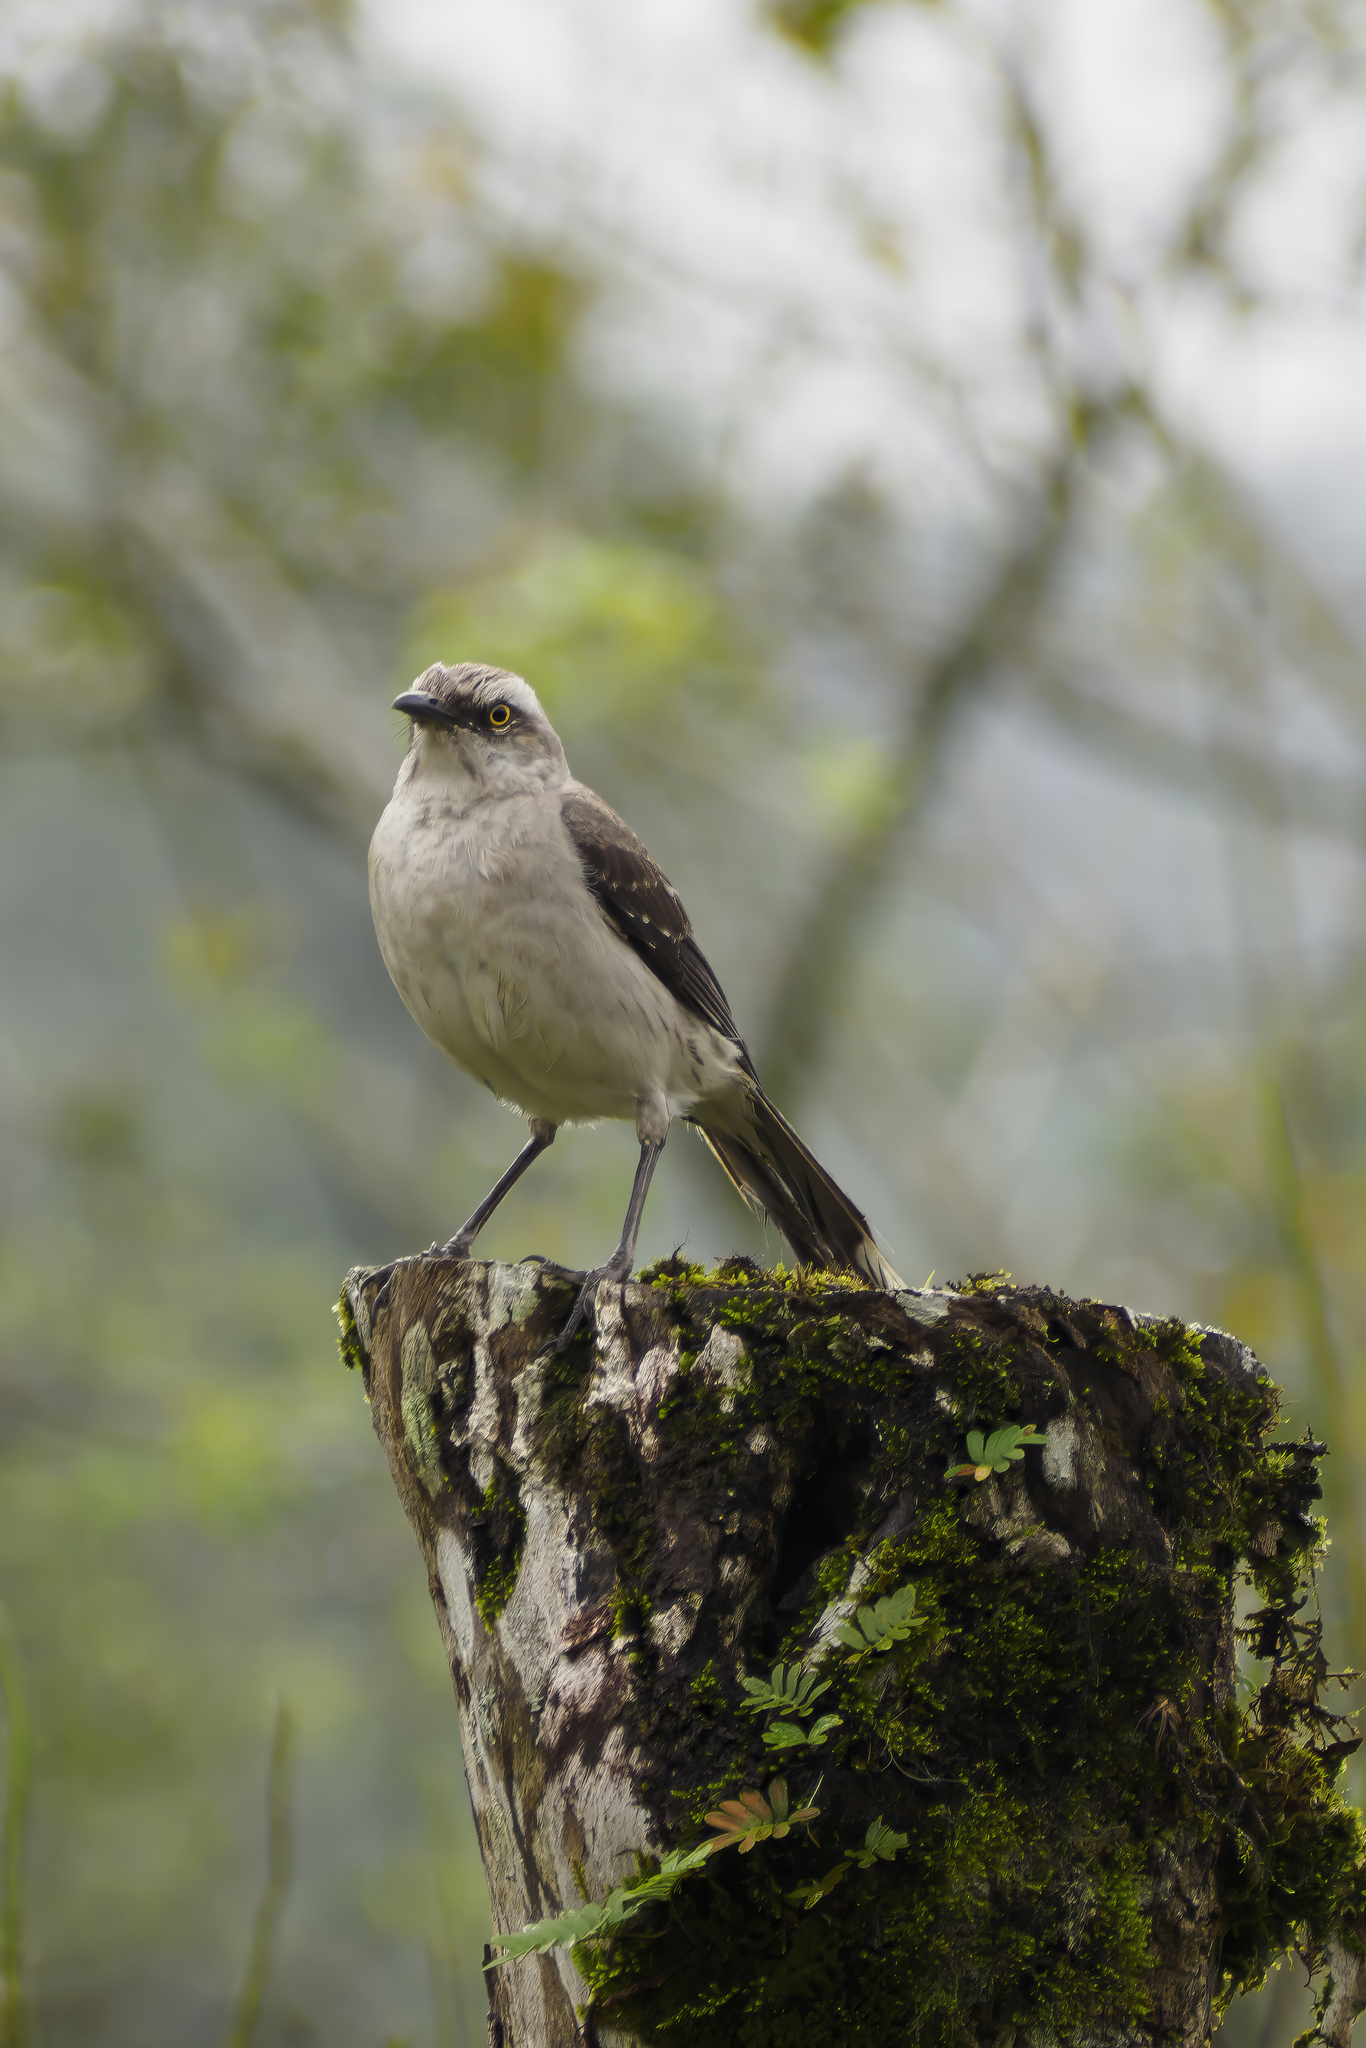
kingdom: Animalia
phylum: Chordata
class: Aves
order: Passeriformes
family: Mimidae
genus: Mimus
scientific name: Mimus gilvus
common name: Tropical mockingbird
